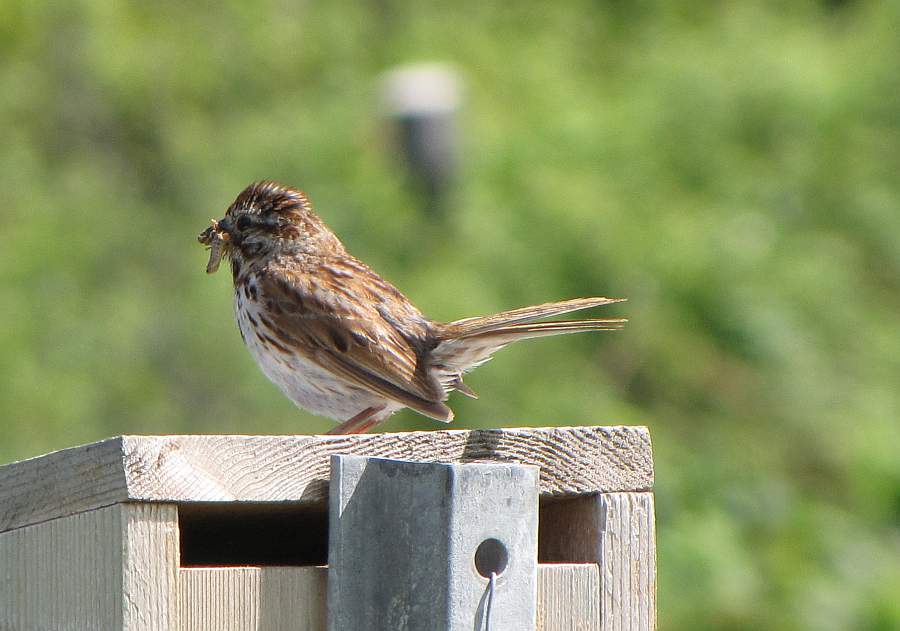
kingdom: Animalia
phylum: Chordata
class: Aves
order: Passeriformes
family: Passerellidae
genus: Melospiza
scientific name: Melospiza melodia
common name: Song sparrow
